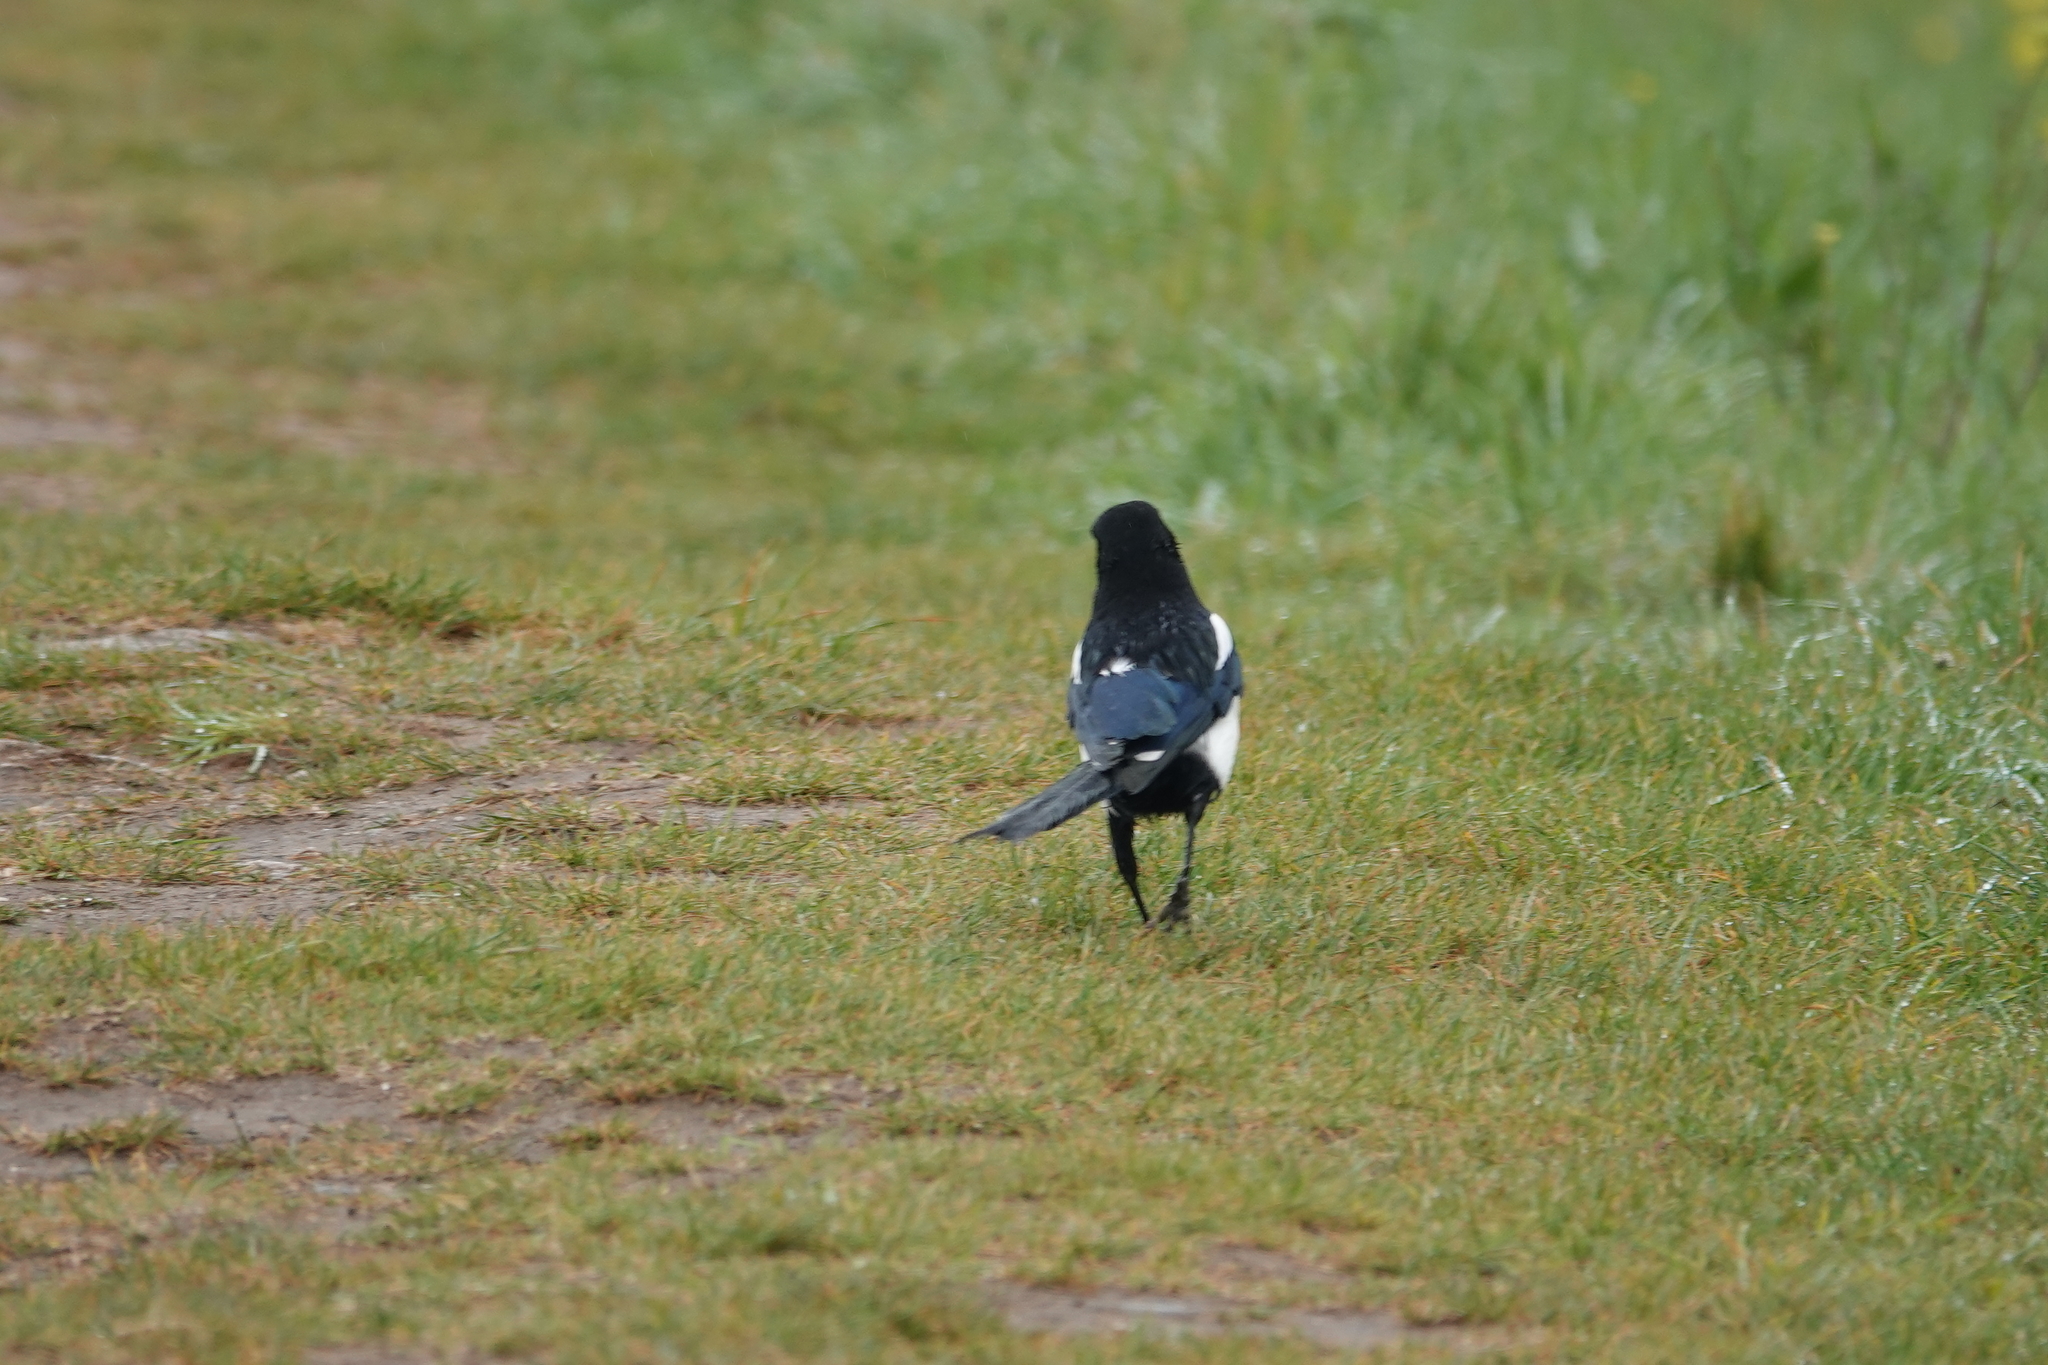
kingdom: Animalia
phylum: Chordata
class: Aves
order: Passeriformes
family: Corvidae
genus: Pica
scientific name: Pica pica
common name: Eurasian magpie
